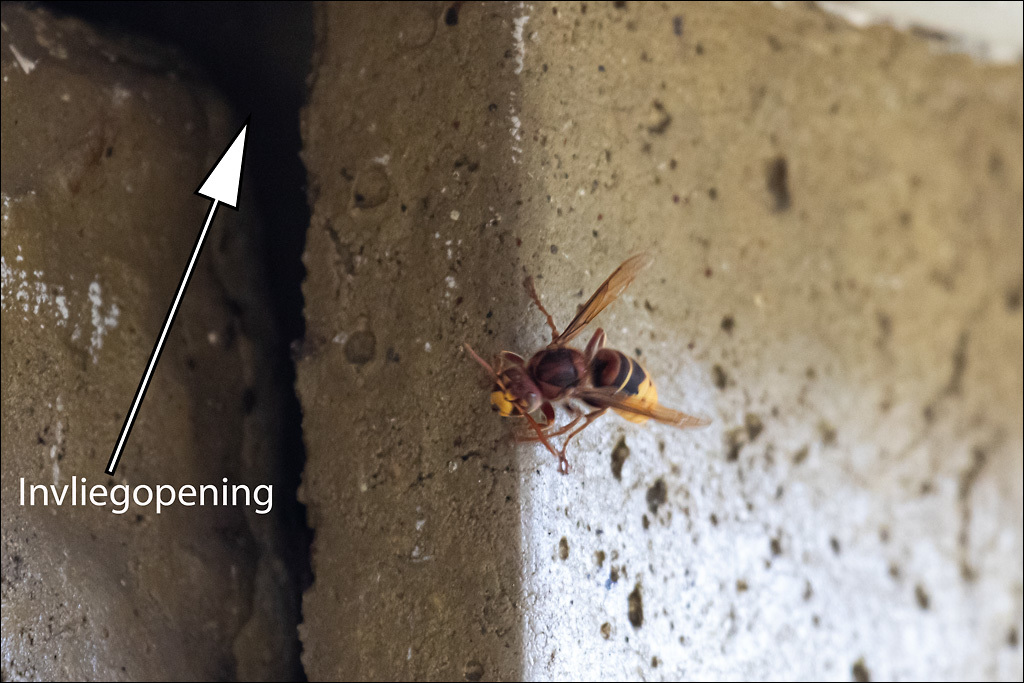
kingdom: Animalia
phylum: Arthropoda
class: Insecta
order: Hymenoptera
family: Vespidae
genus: Vespa
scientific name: Vespa crabro
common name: Hornet
